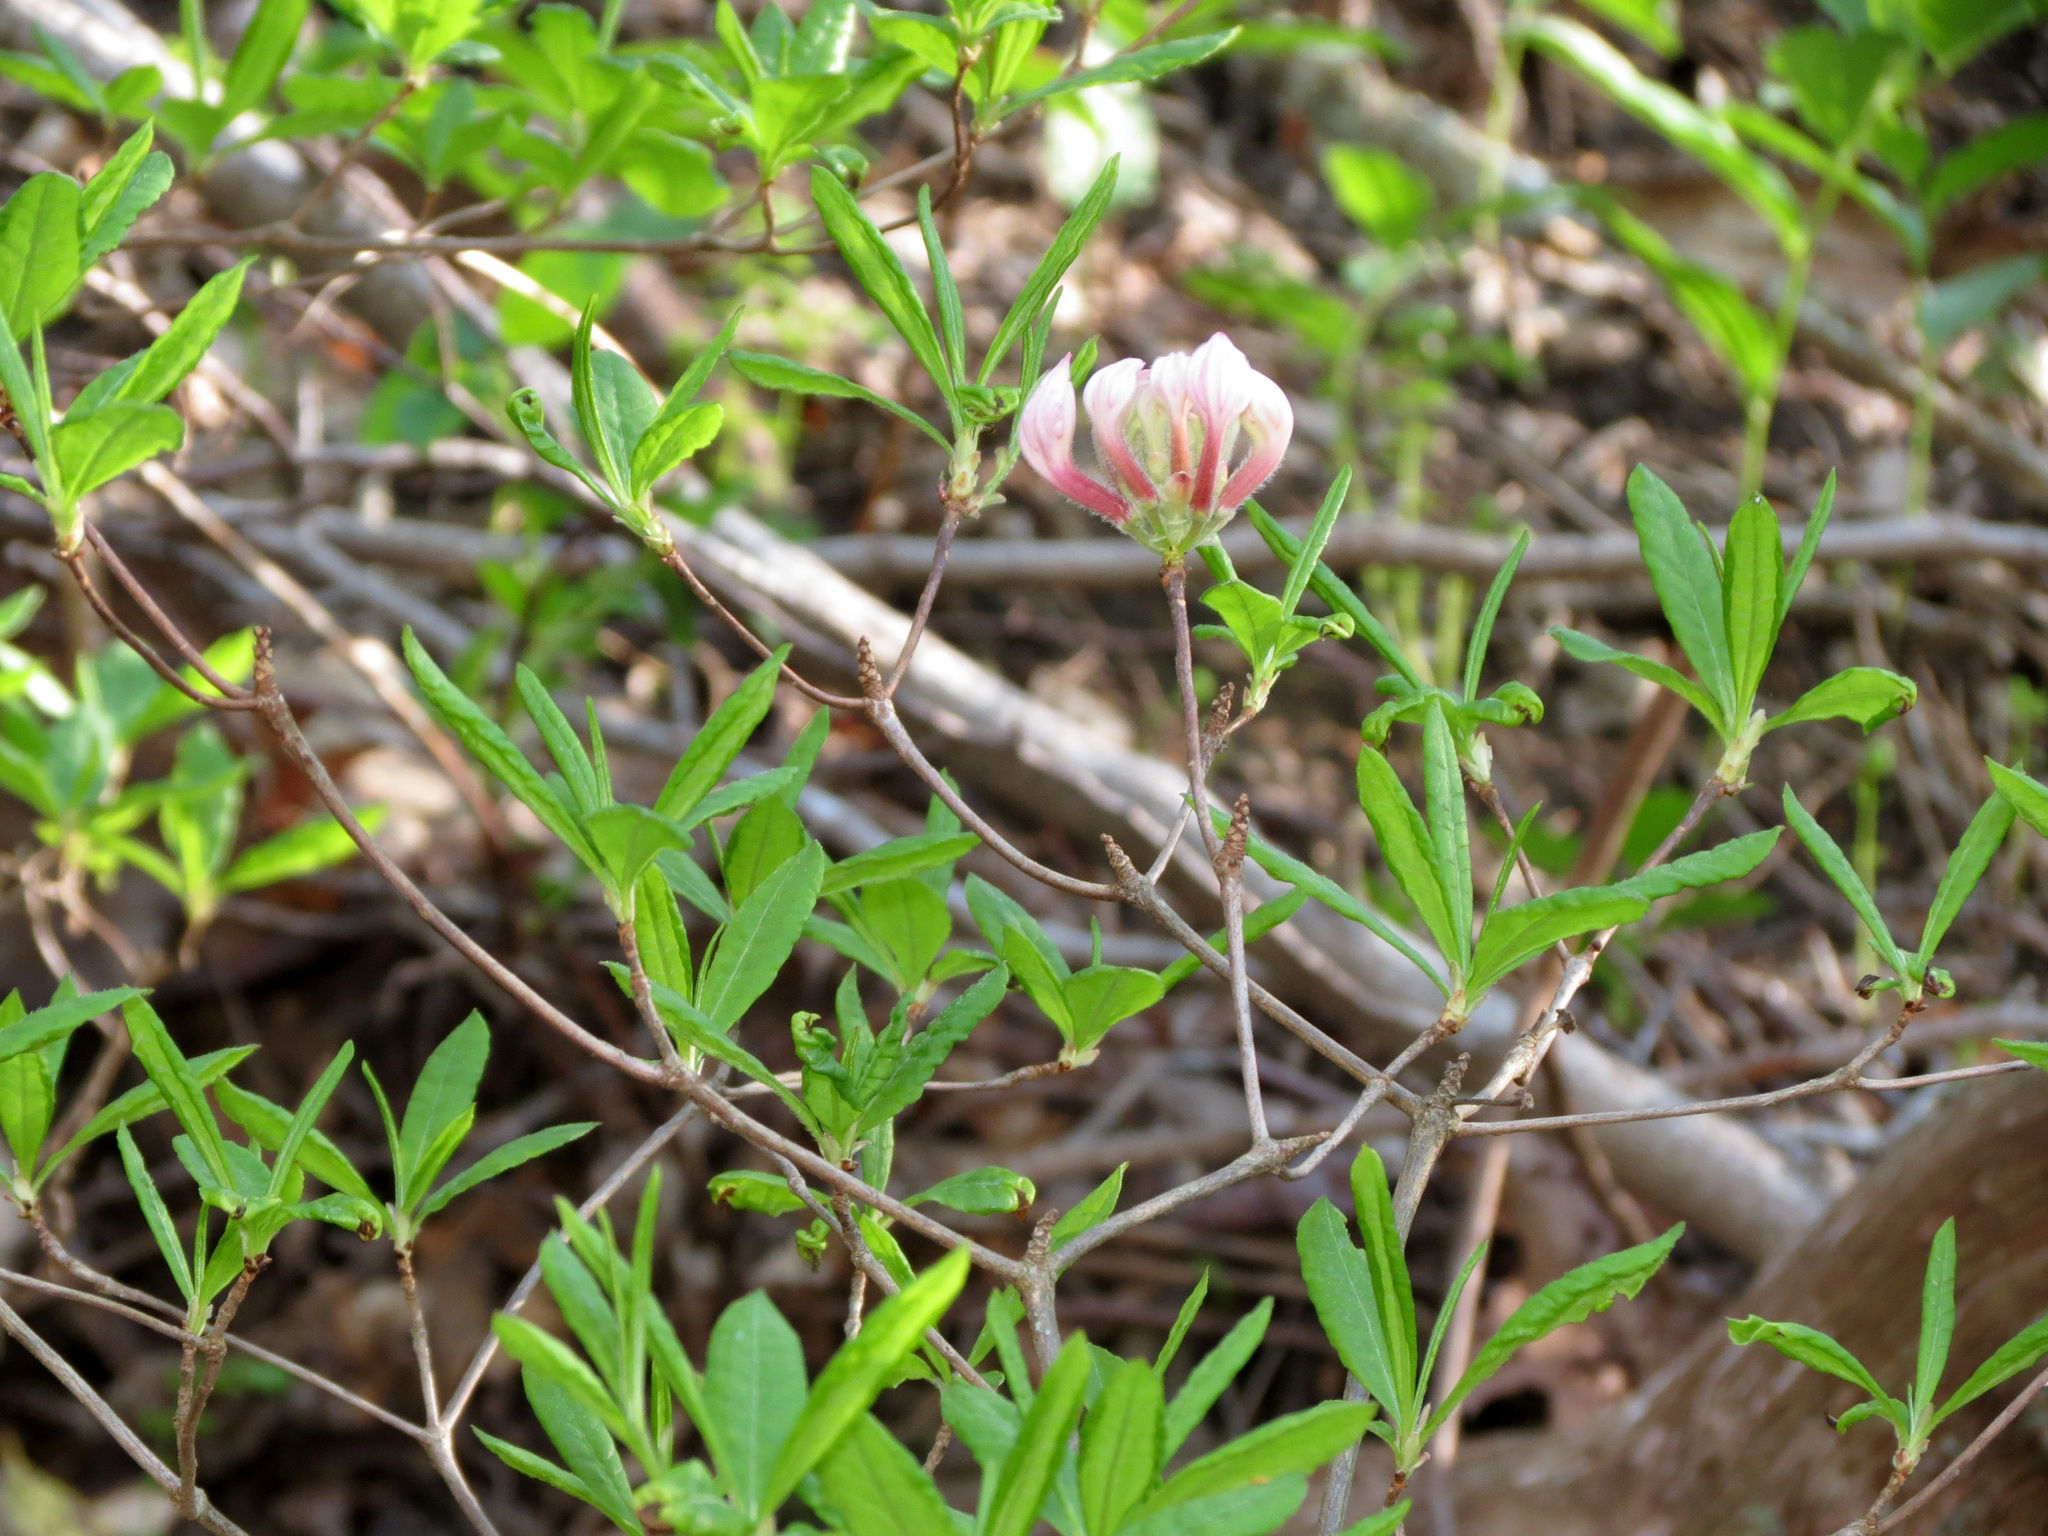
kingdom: Plantae
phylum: Tracheophyta
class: Magnoliopsida
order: Ericales
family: Ericaceae
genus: Rhododendron
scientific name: Rhododendron periclymenoides
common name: Election-pink
